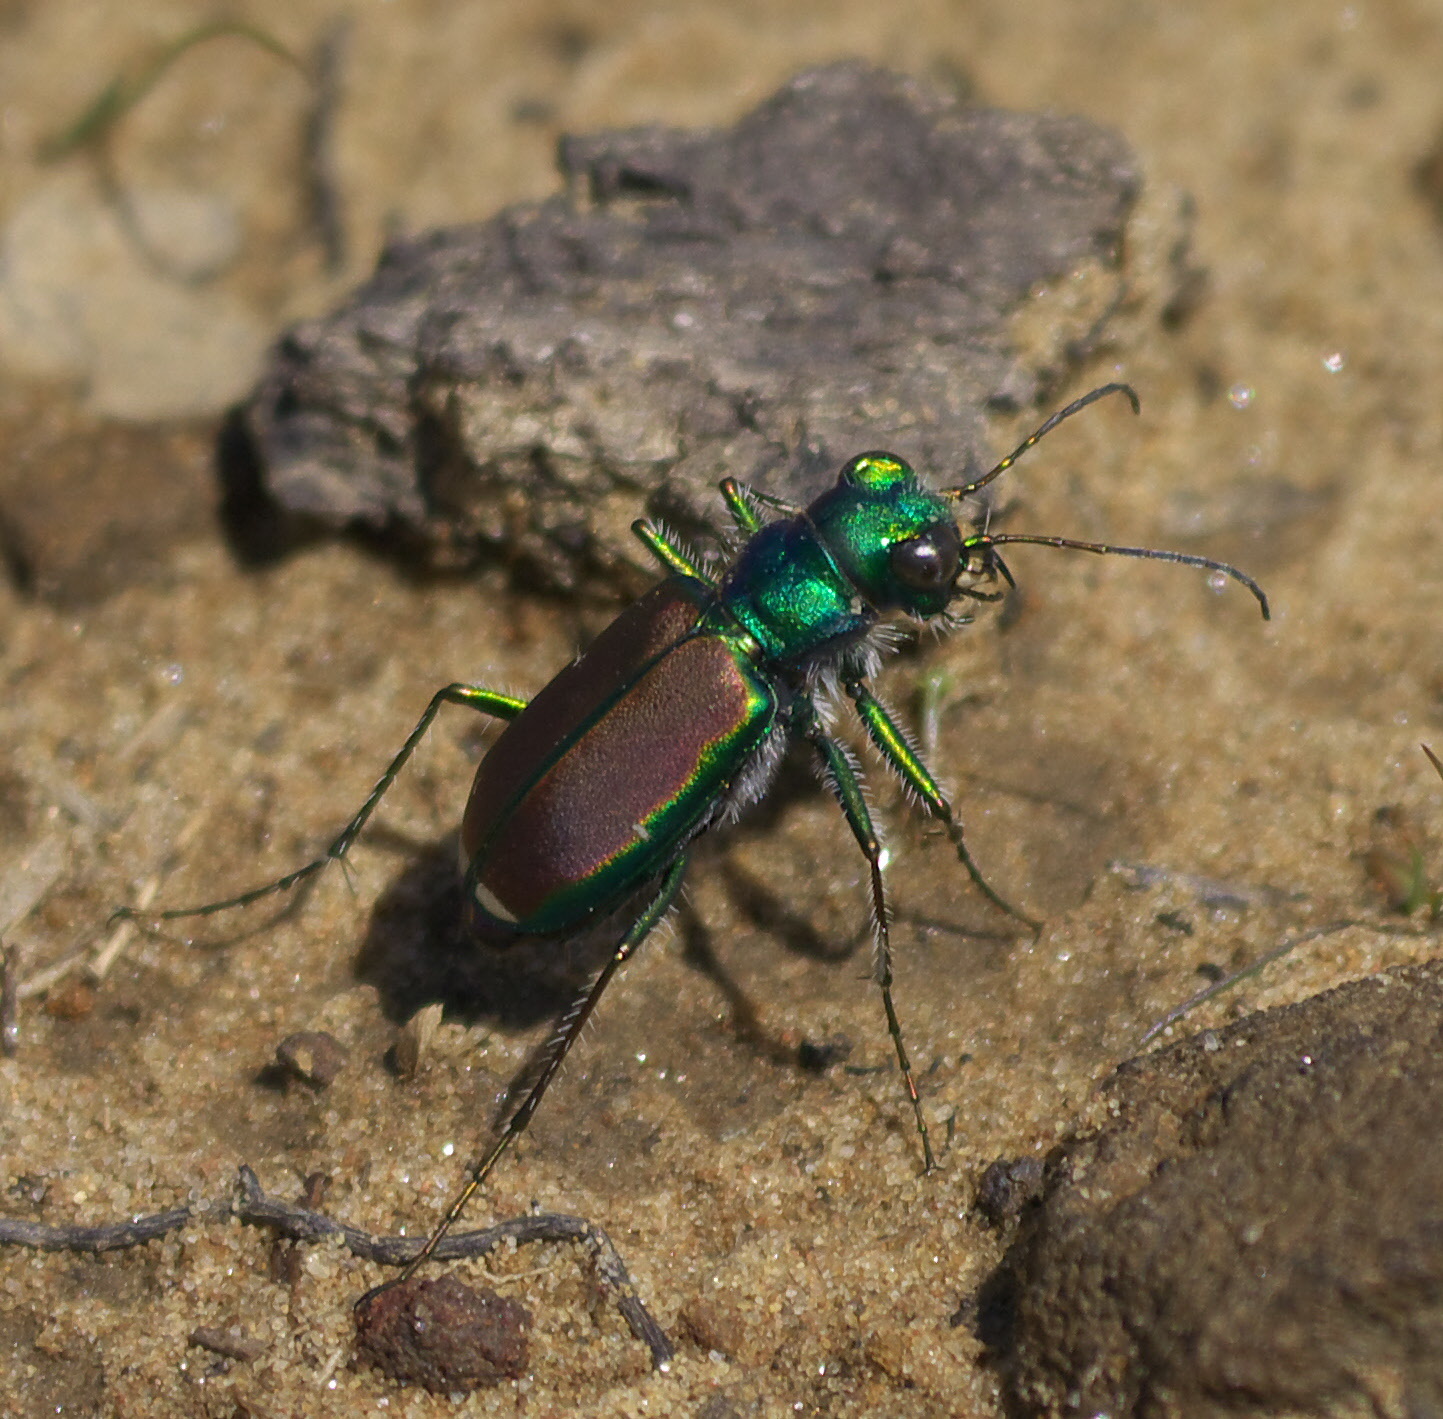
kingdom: Animalia
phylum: Arthropoda
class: Insecta
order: Coleoptera
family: Carabidae
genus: Cicindela
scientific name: Cicindela splendida
